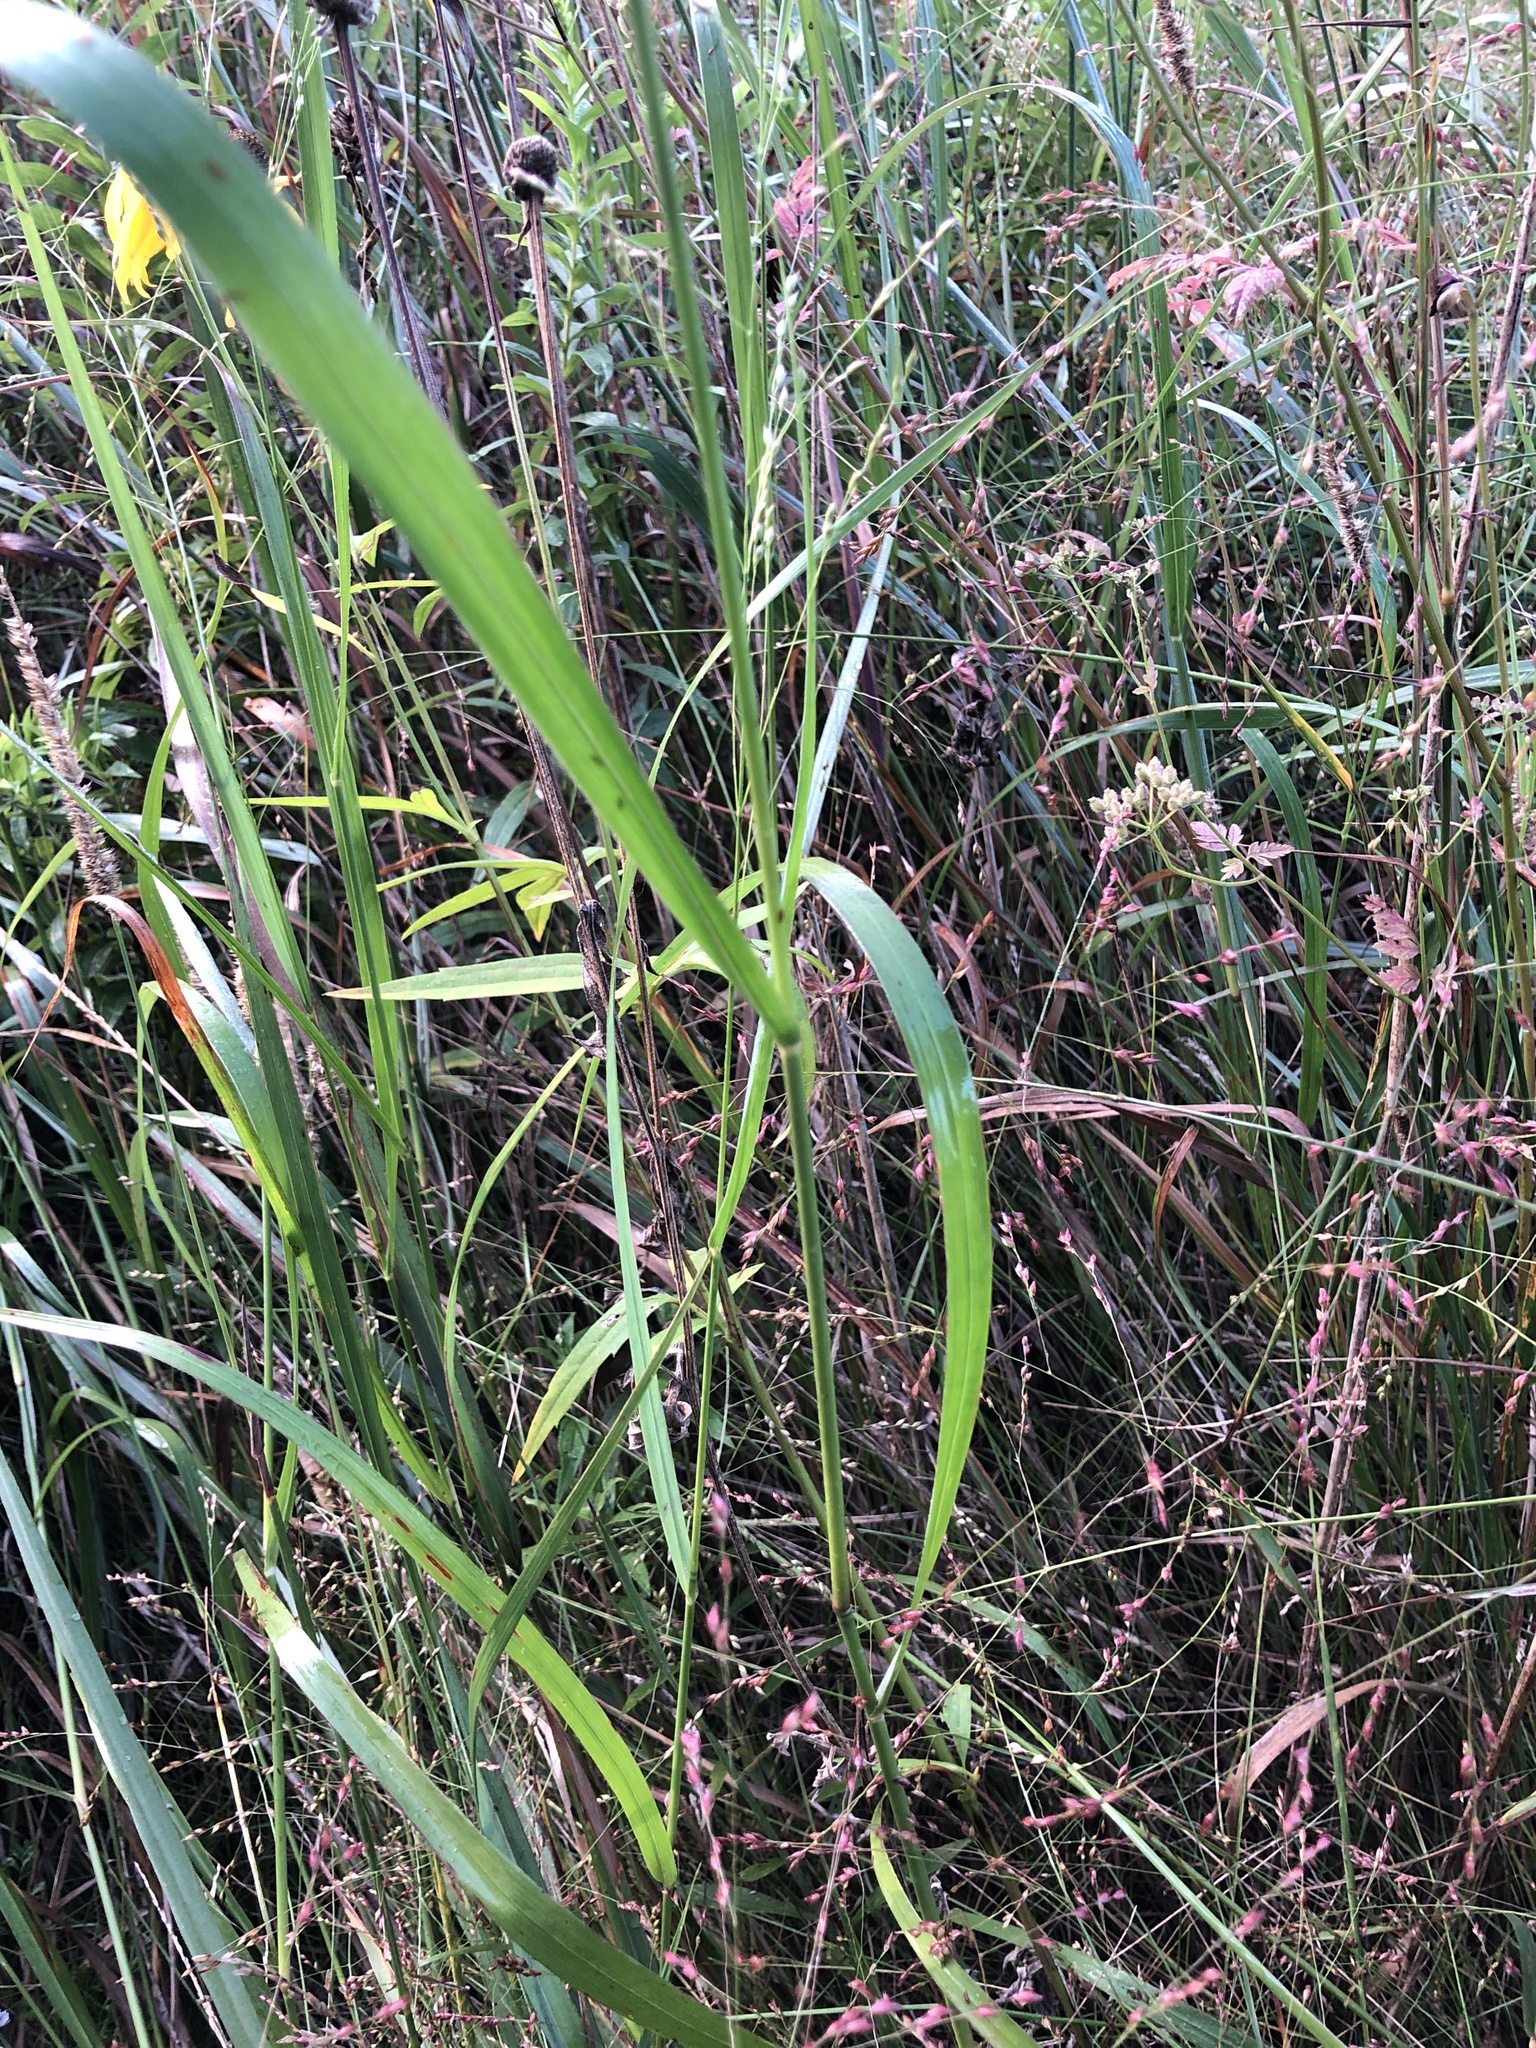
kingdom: Plantae
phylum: Tracheophyta
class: Liliopsida
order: Poales
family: Poaceae
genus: Panicum
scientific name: Panicum virgatum
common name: Switchgrass
